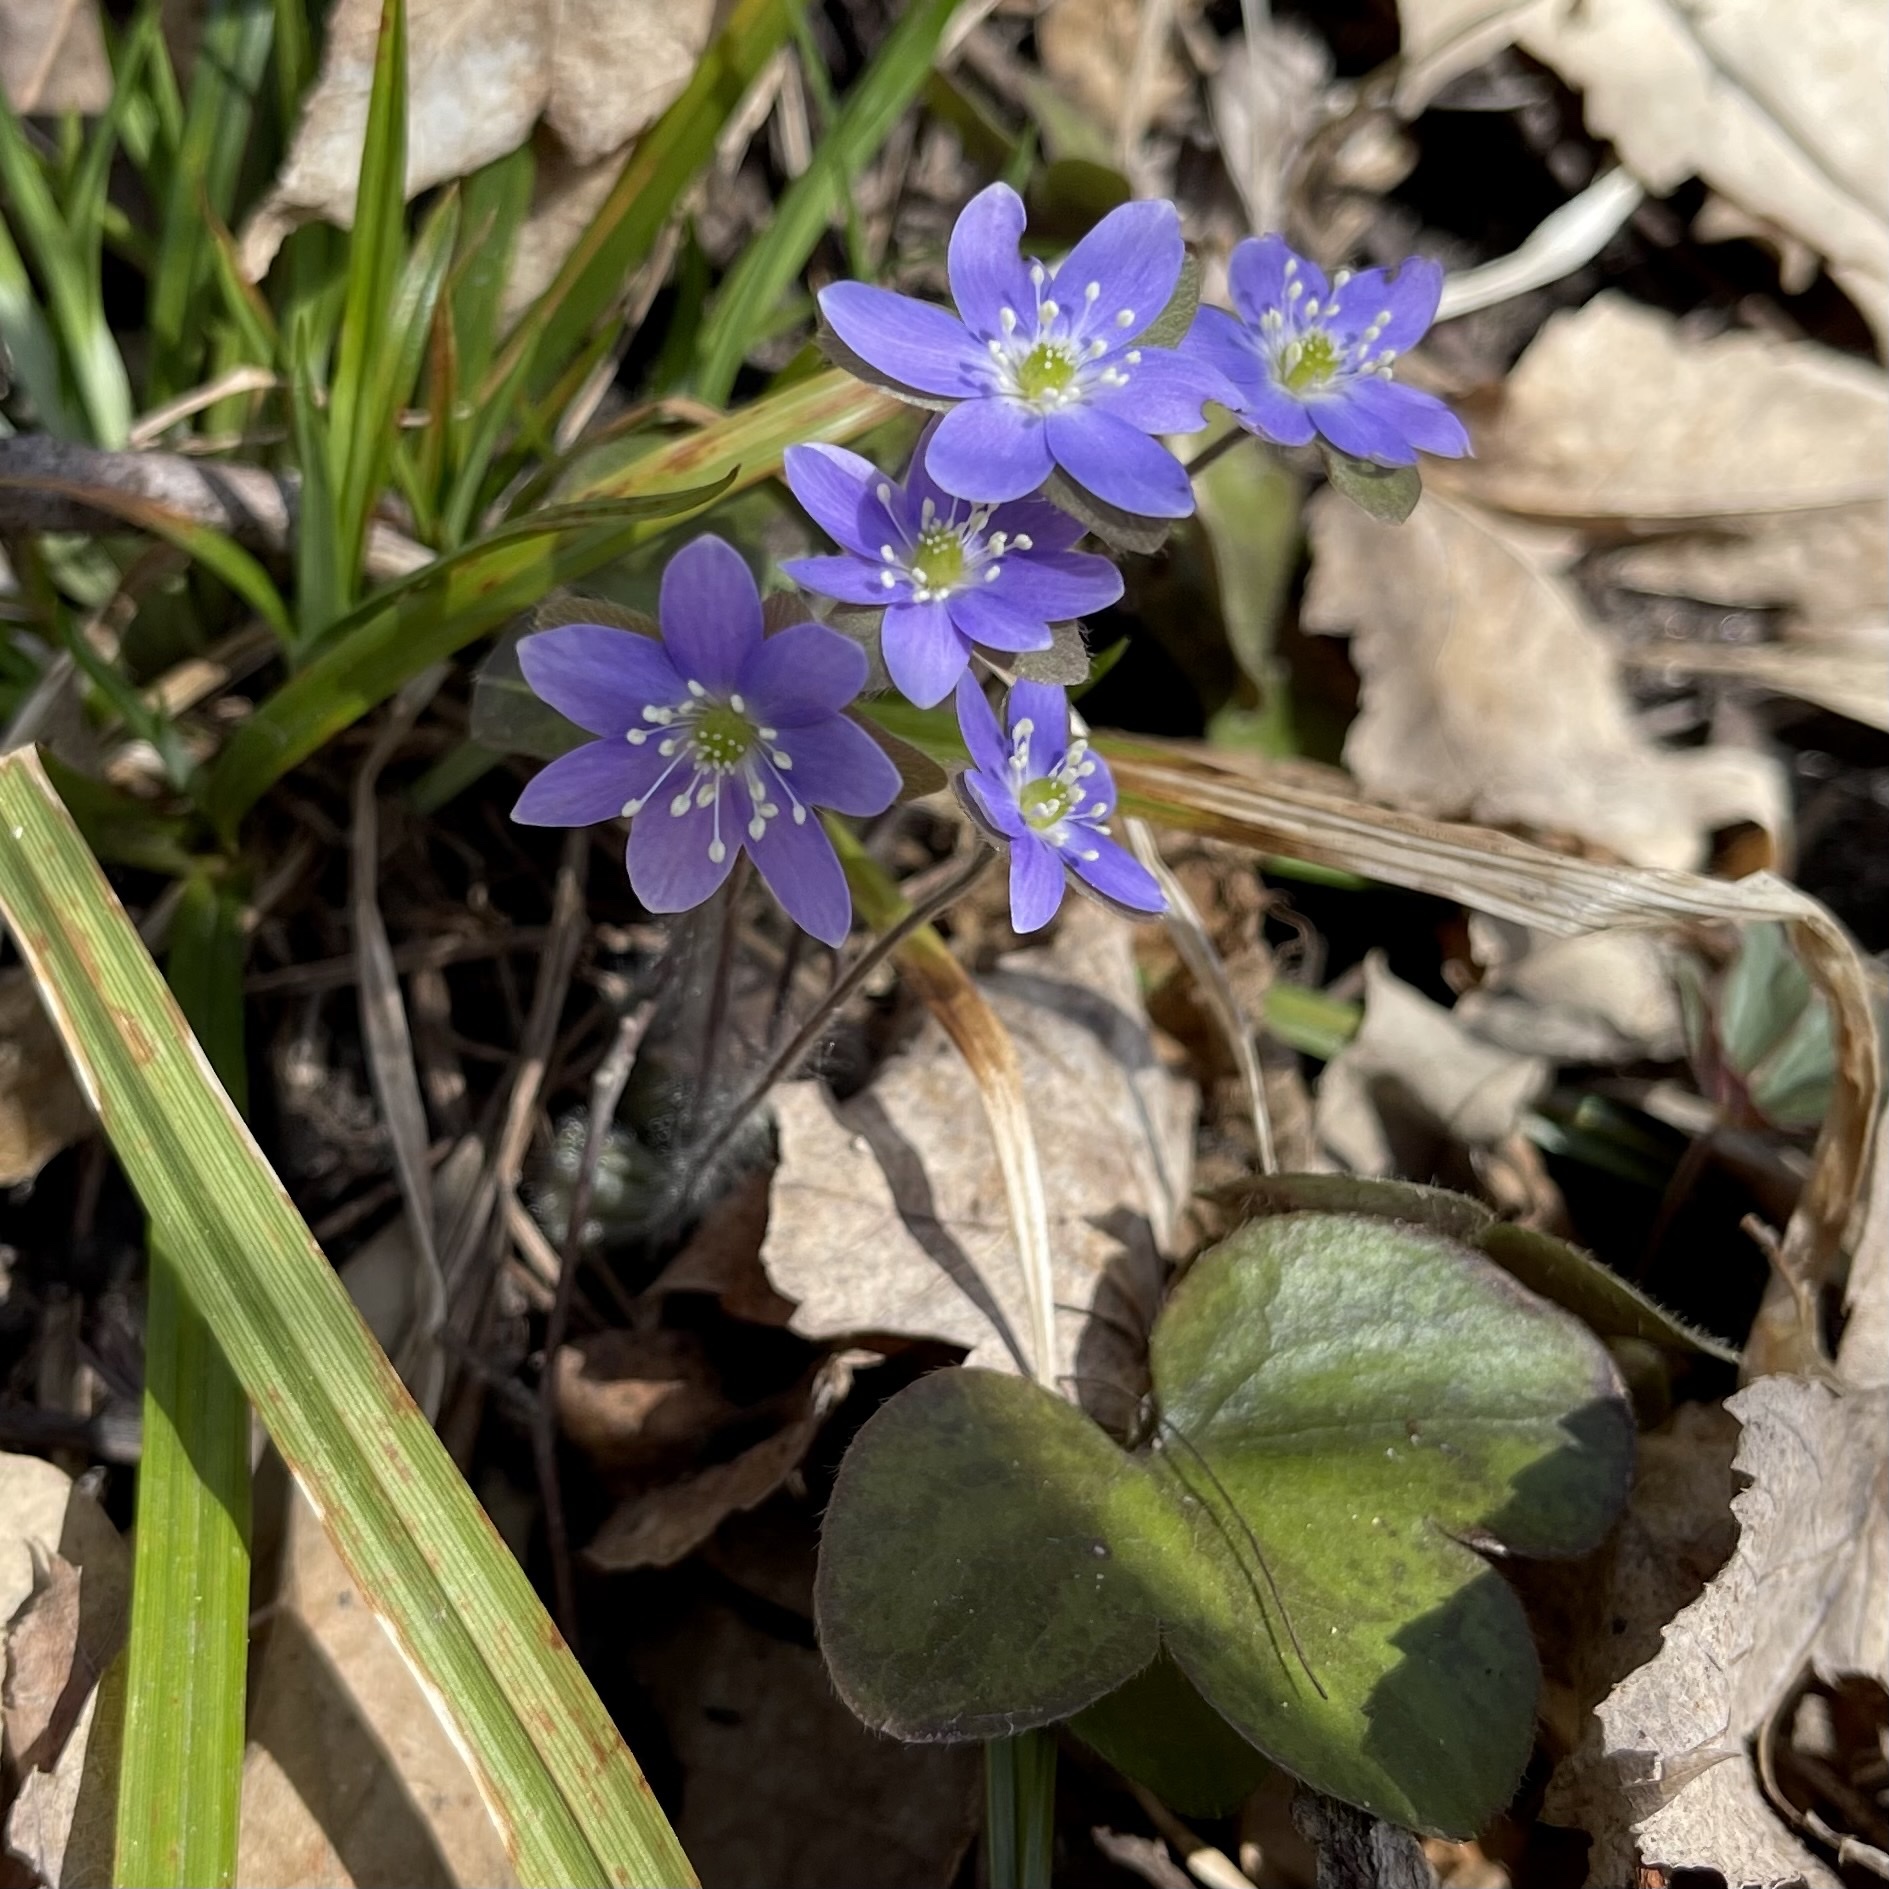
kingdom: Plantae
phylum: Tracheophyta
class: Magnoliopsida
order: Ranunculales
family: Ranunculaceae
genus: Hepatica
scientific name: Hepatica americana
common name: American hepatica
